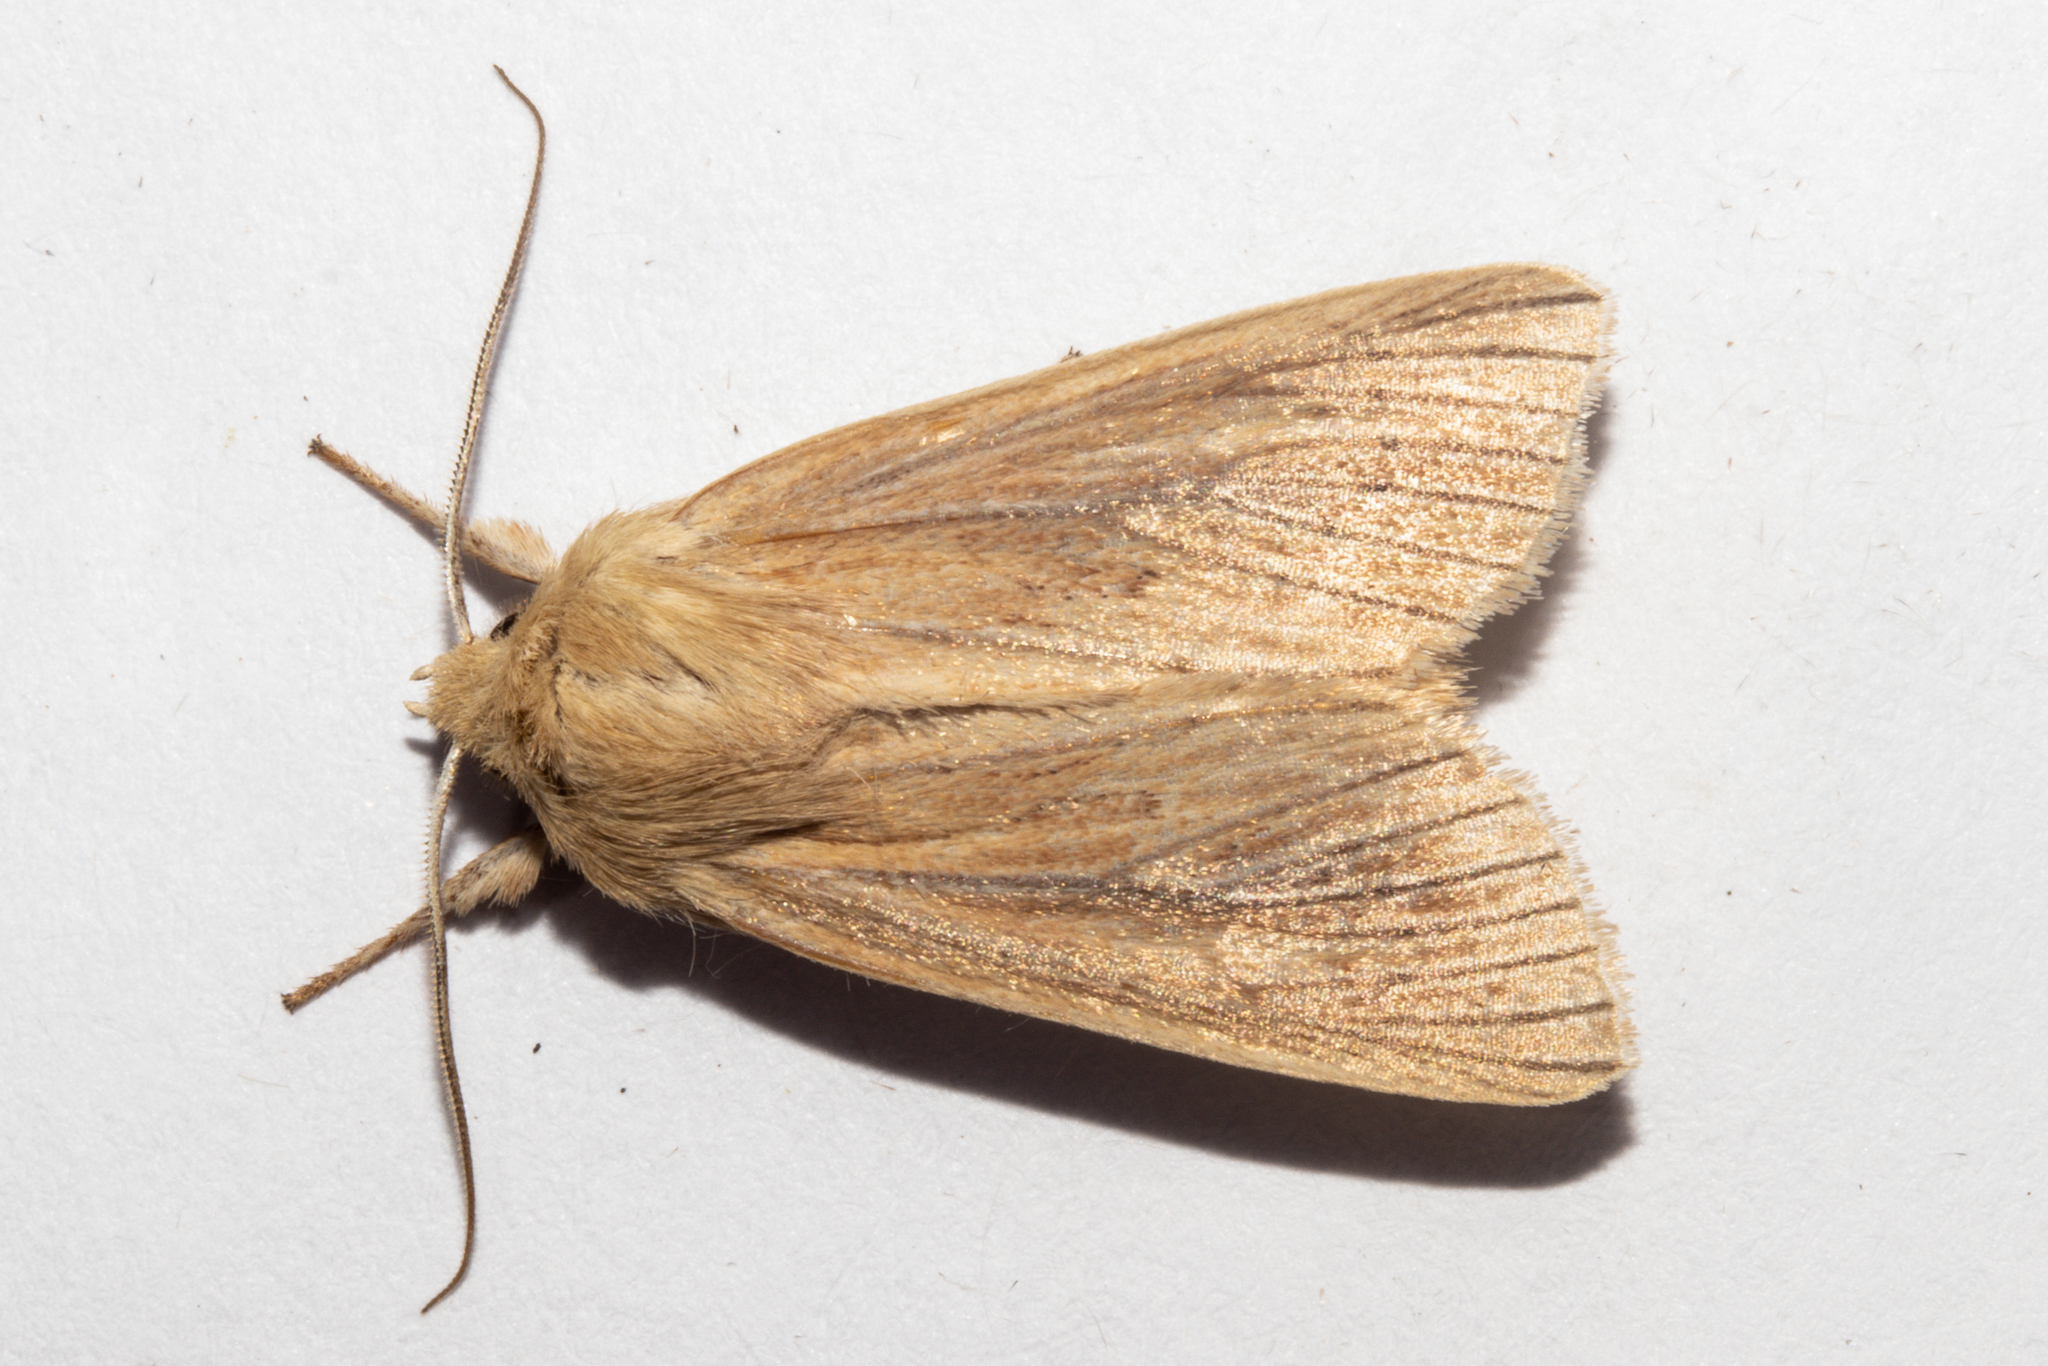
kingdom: Animalia
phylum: Arthropoda
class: Insecta
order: Lepidoptera
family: Noctuidae
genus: Ichneutica
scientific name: Ichneutica
